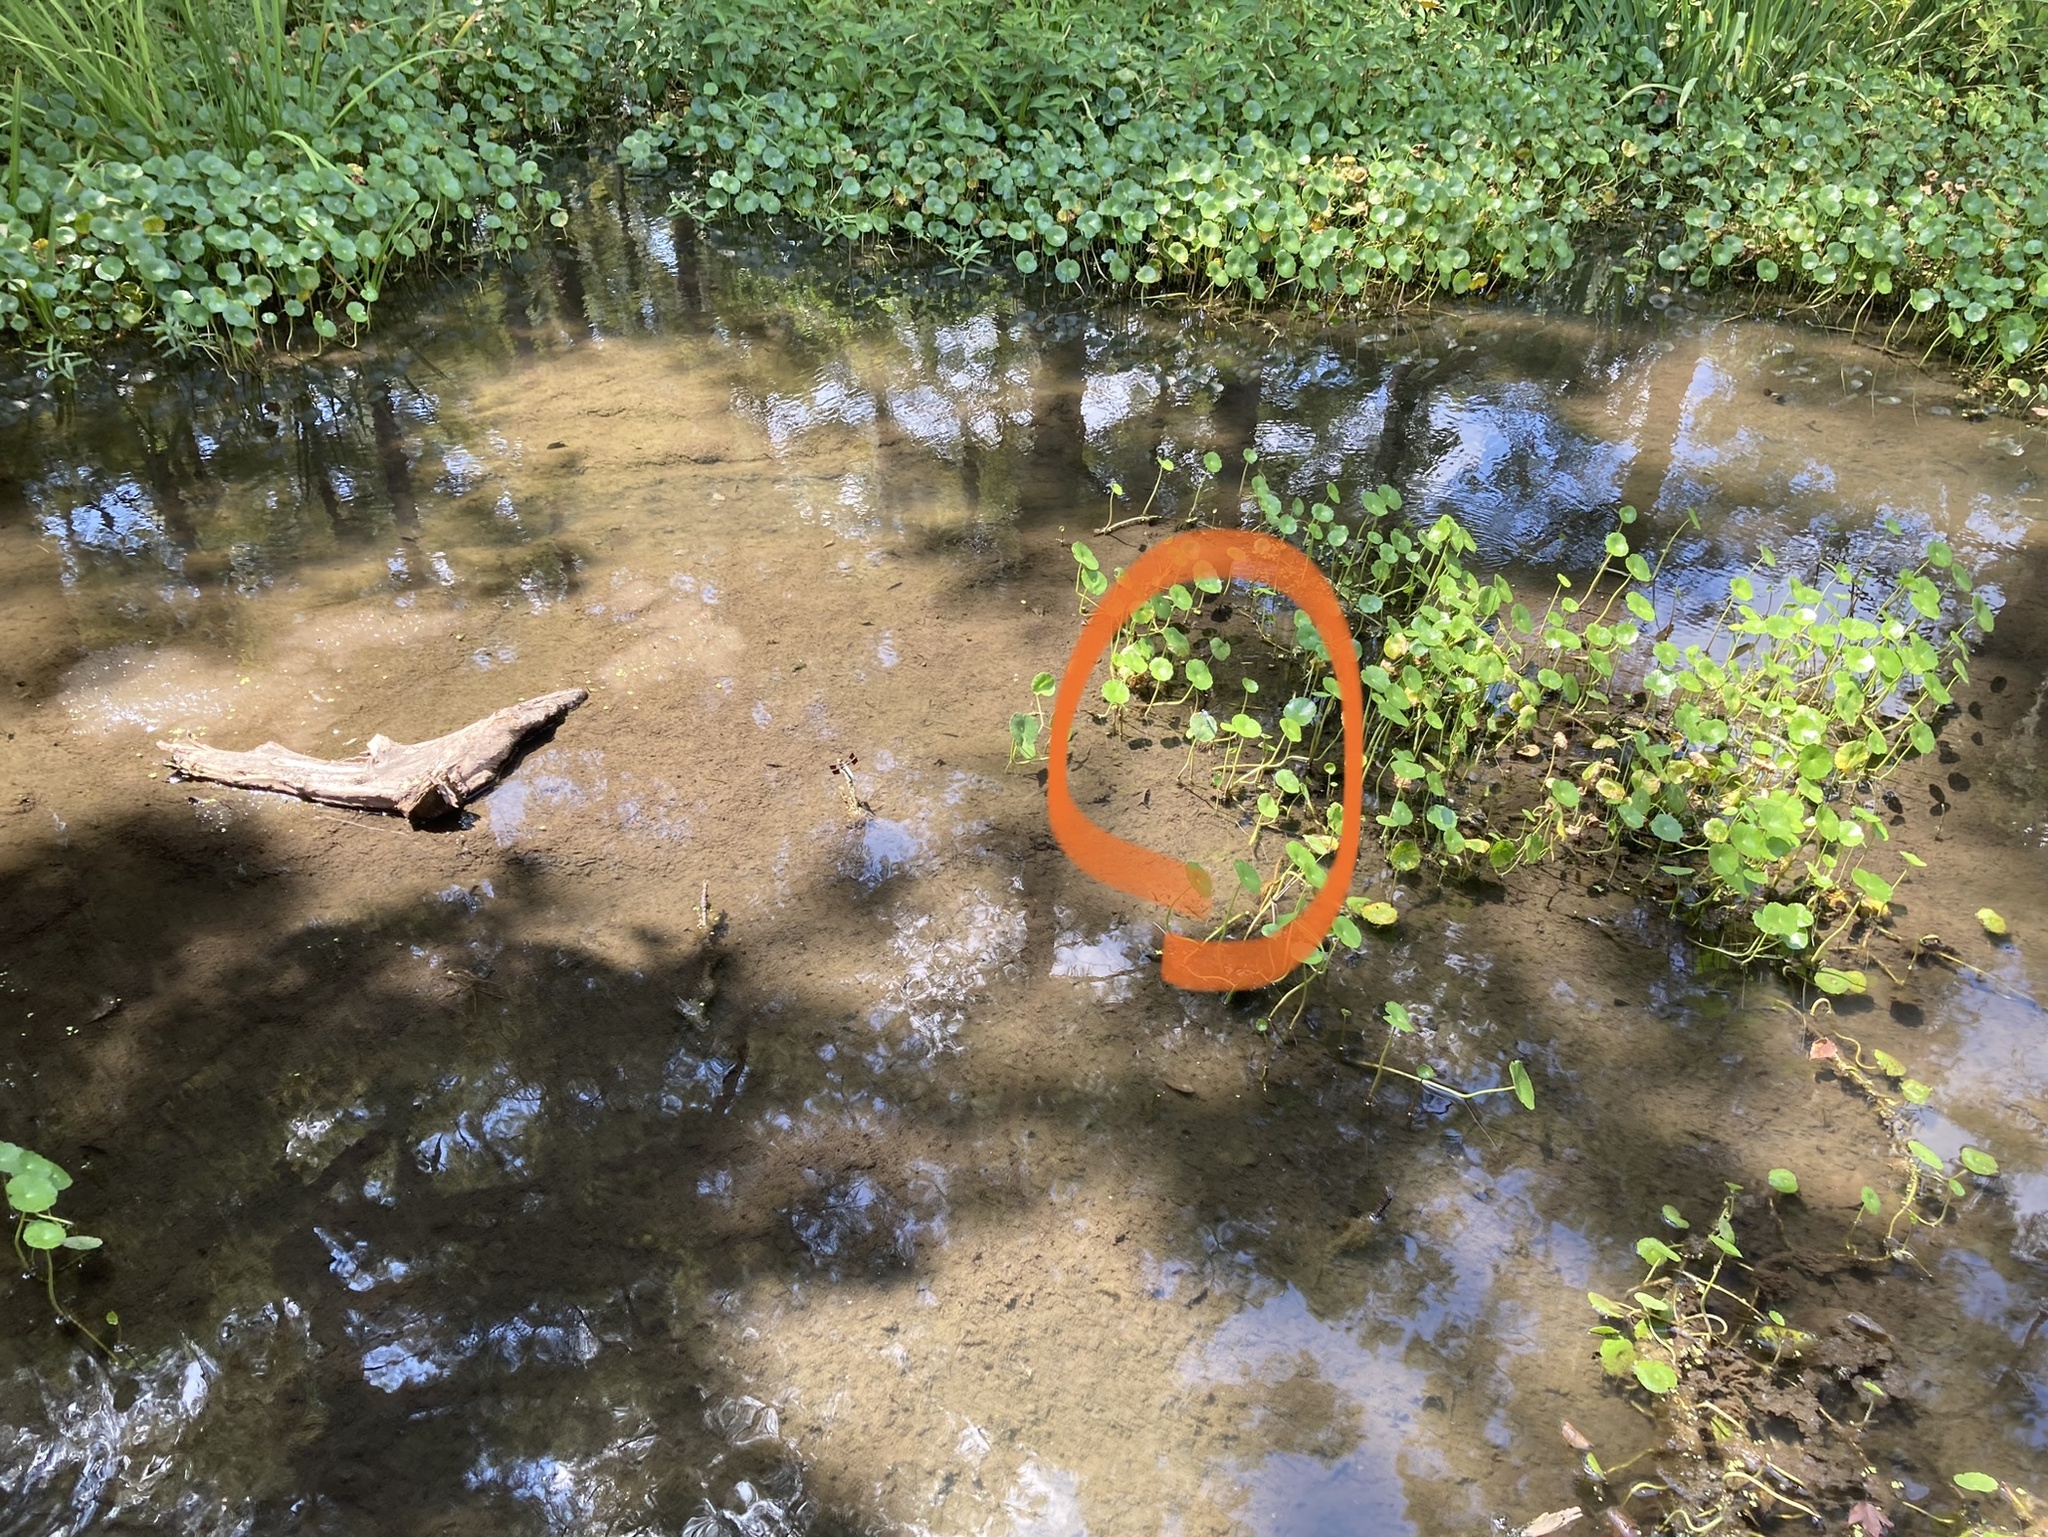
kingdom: Animalia
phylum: Arthropoda
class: Insecta
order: Odonata
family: Libellulidae
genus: Plathemis
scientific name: Plathemis lydia
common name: Common whitetail
